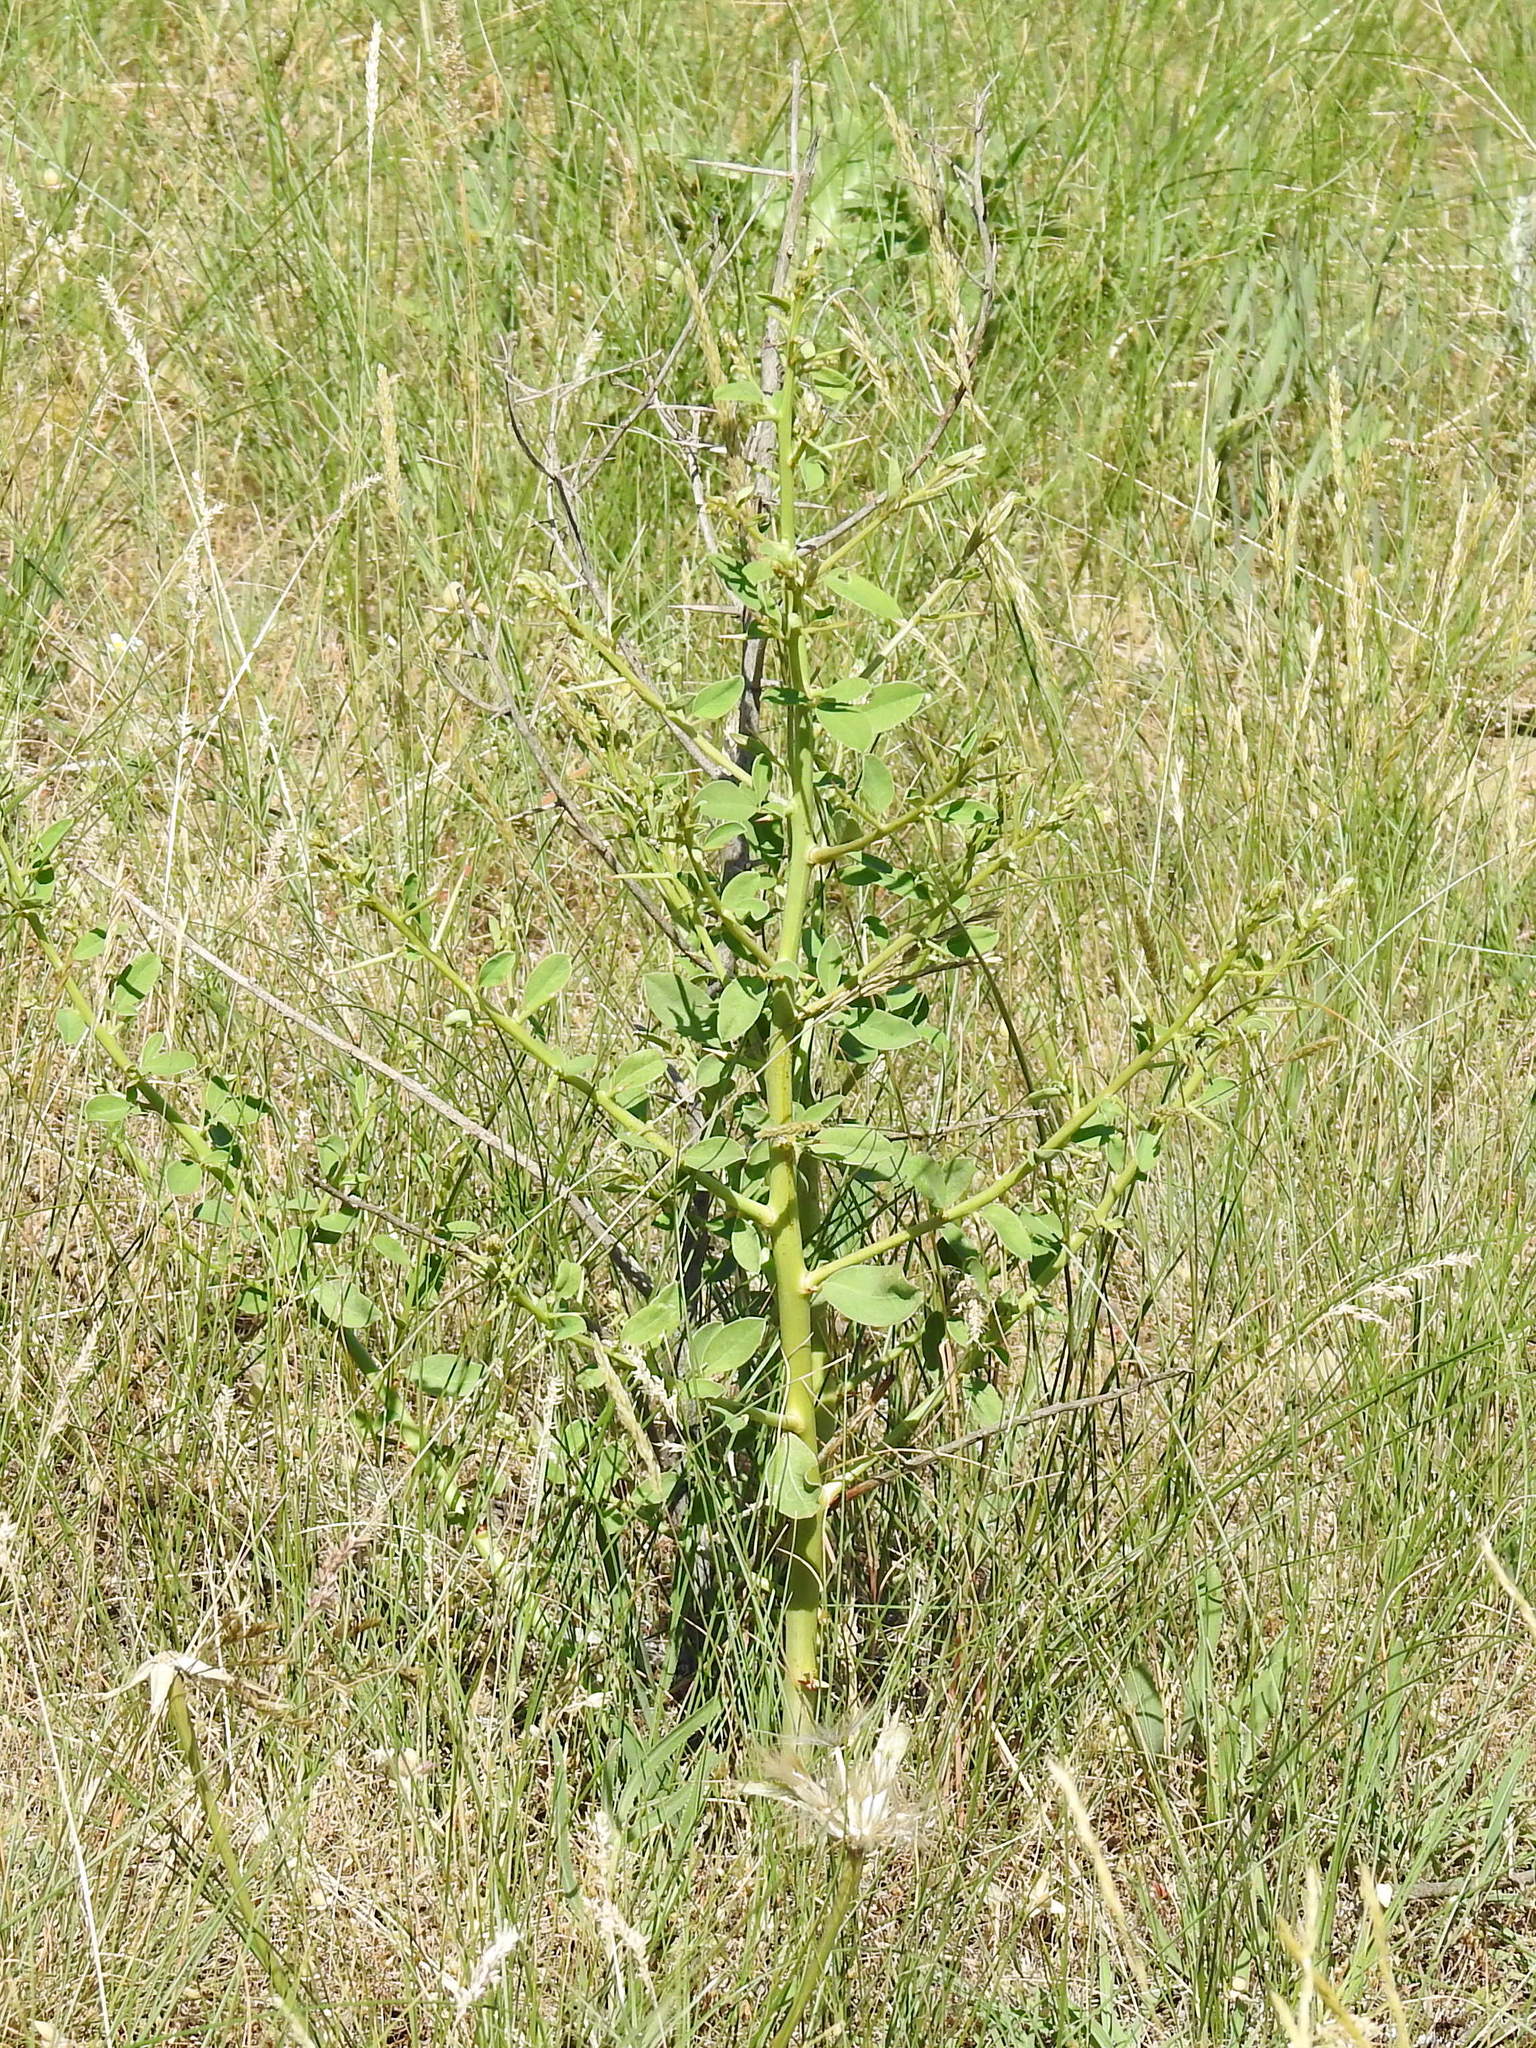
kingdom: Plantae
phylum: Tracheophyta
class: Magnoliopsida
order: Fabales
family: Fabaceae
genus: Alhagi
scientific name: Alhagi pseudalhagi
